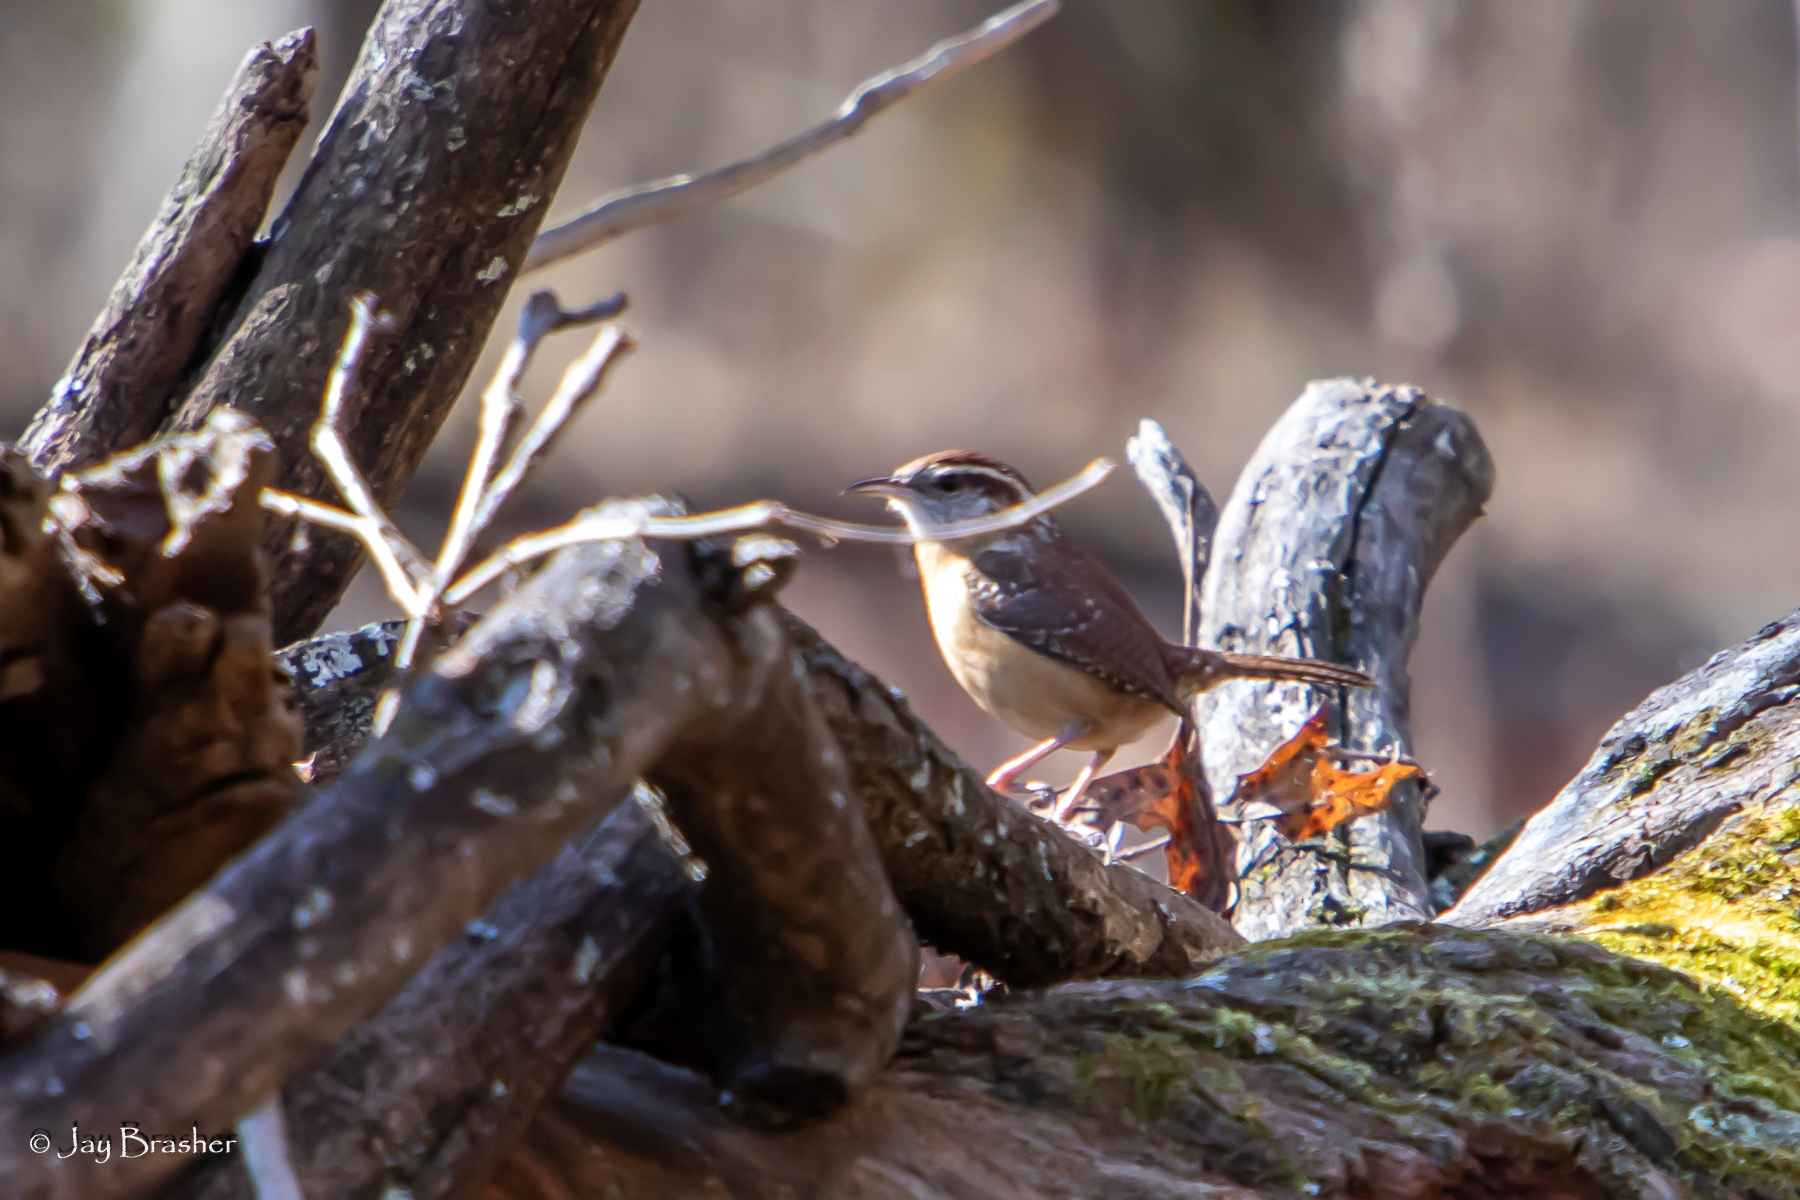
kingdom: Animalia
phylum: Chordata
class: Aves
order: Passeriformes
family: Troglodytidae
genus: Thryothorus
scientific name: Thryothorus ludovicianus
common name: Carolina wren
